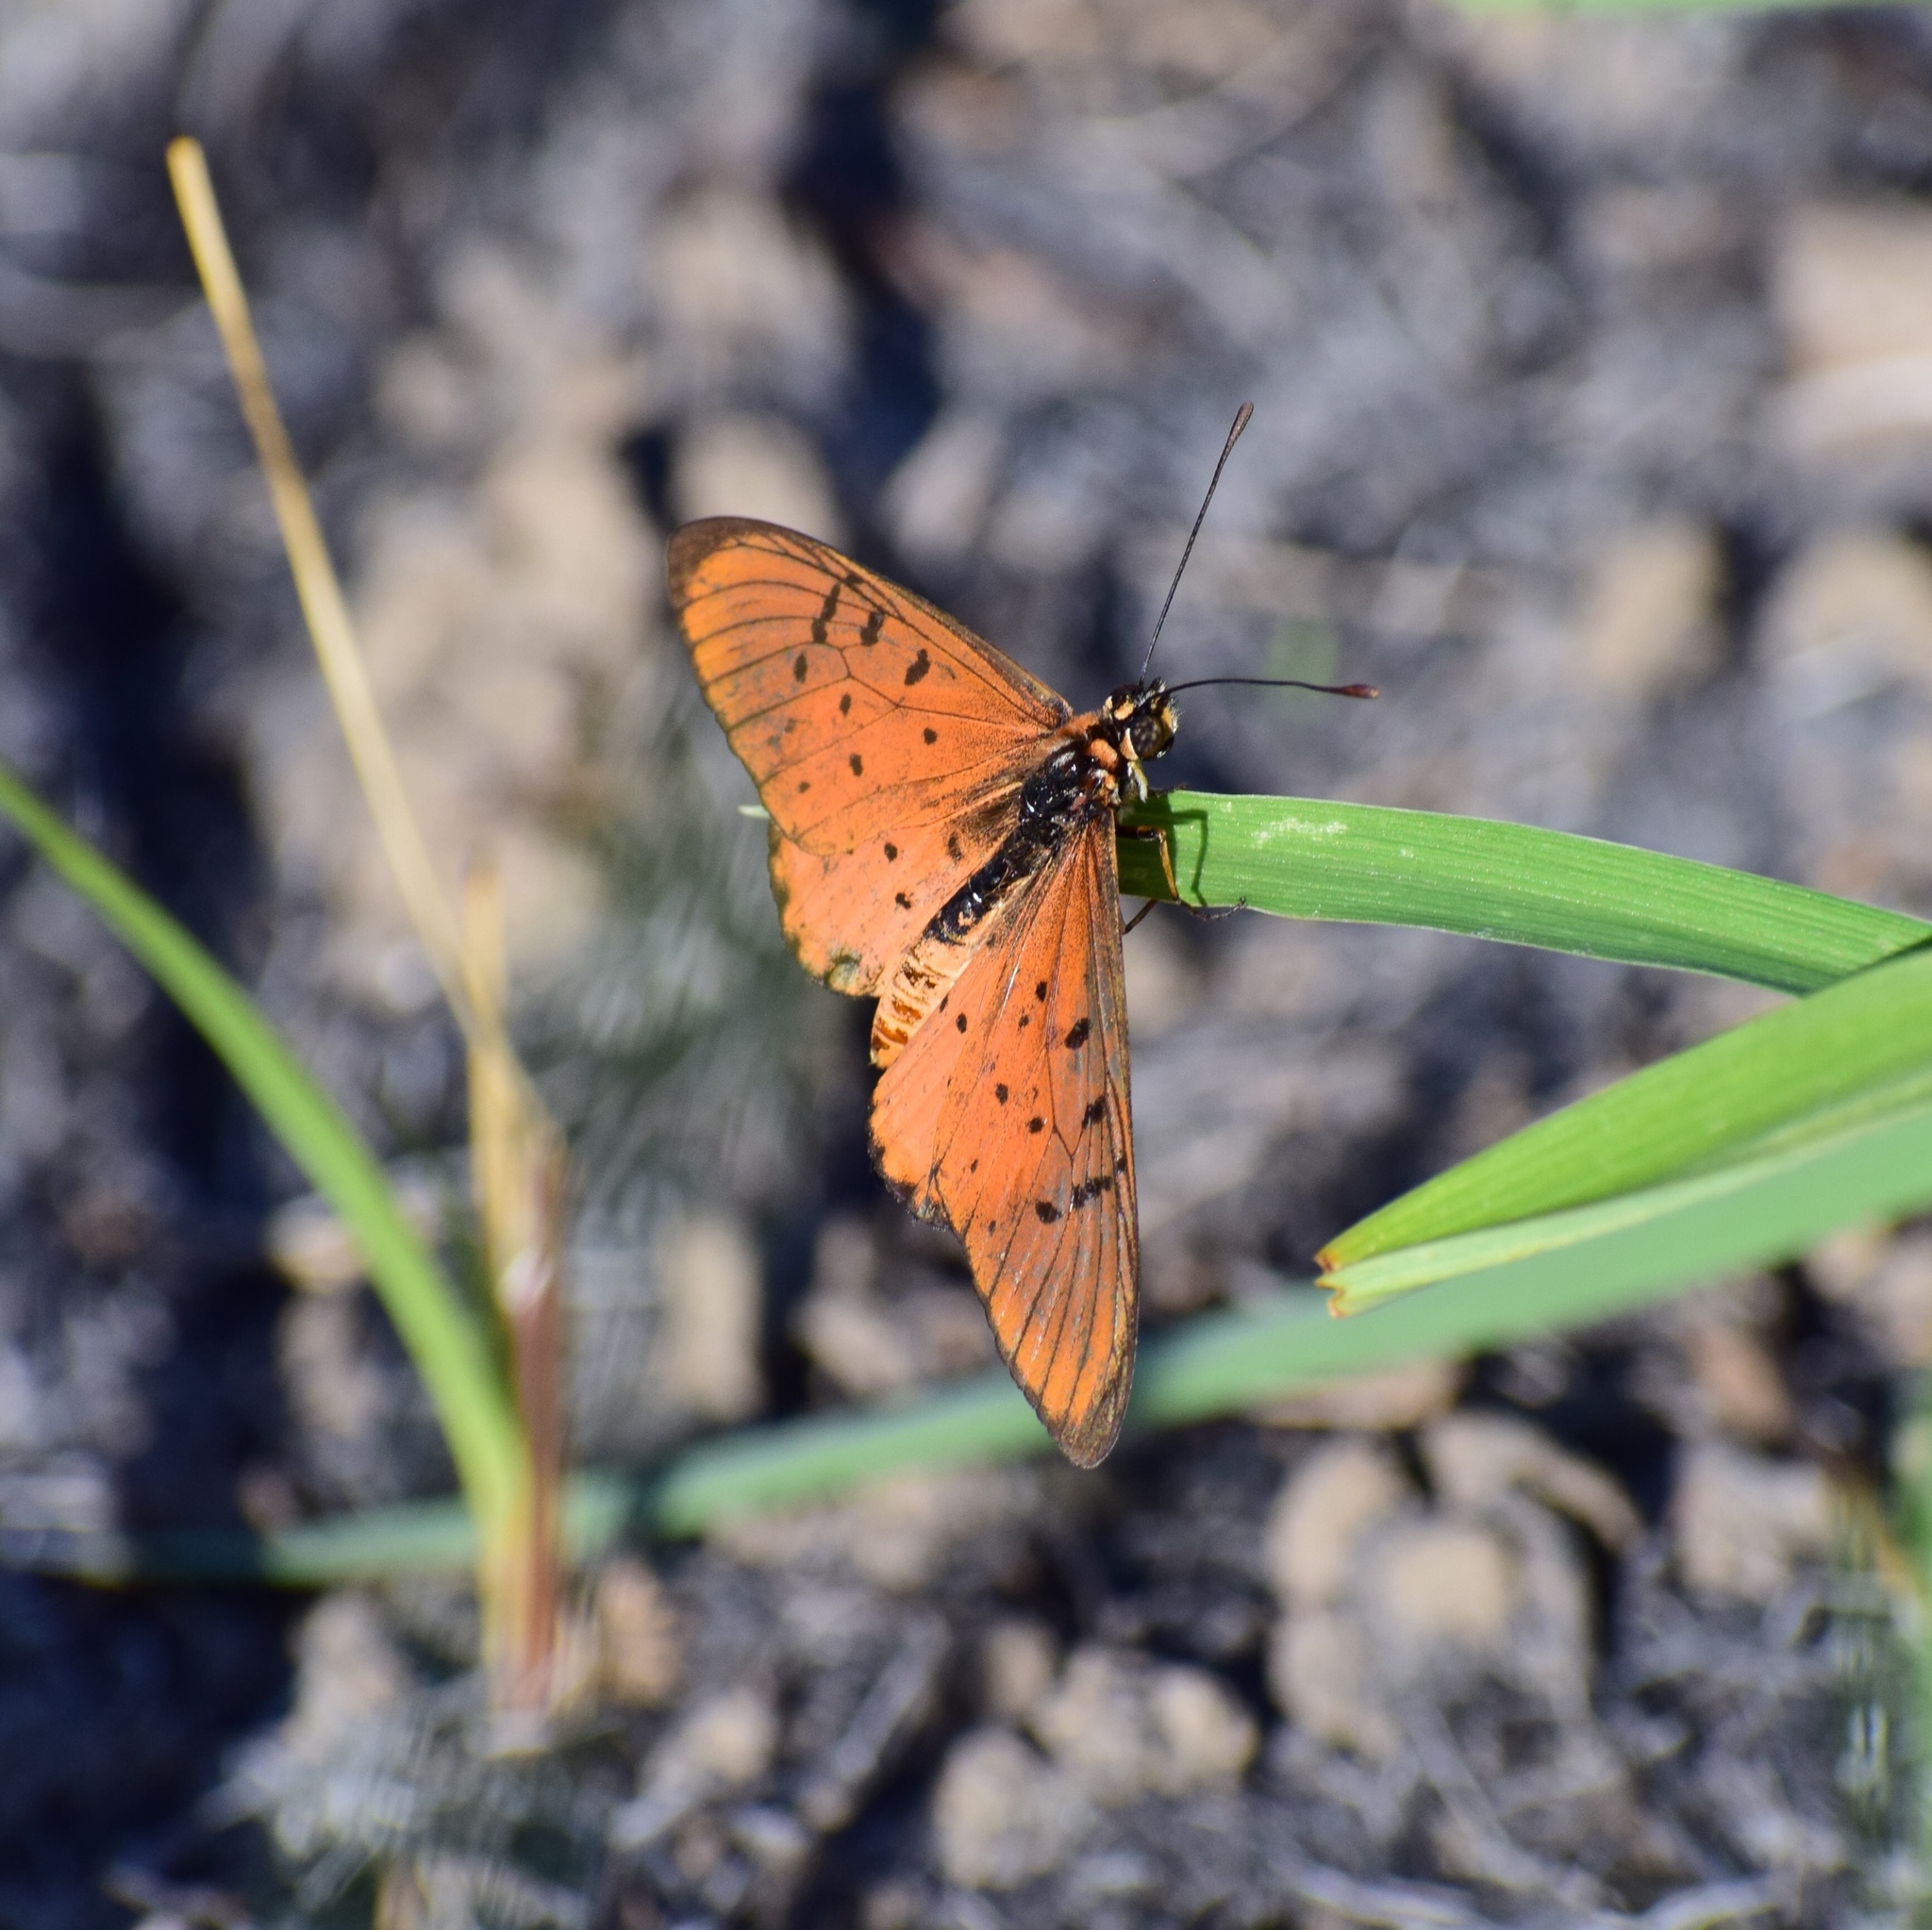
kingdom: Animalia
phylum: Arthropoda
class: Insecta
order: Lepidoptera
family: Nymphalidae
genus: Stephenia
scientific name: Stephenia
